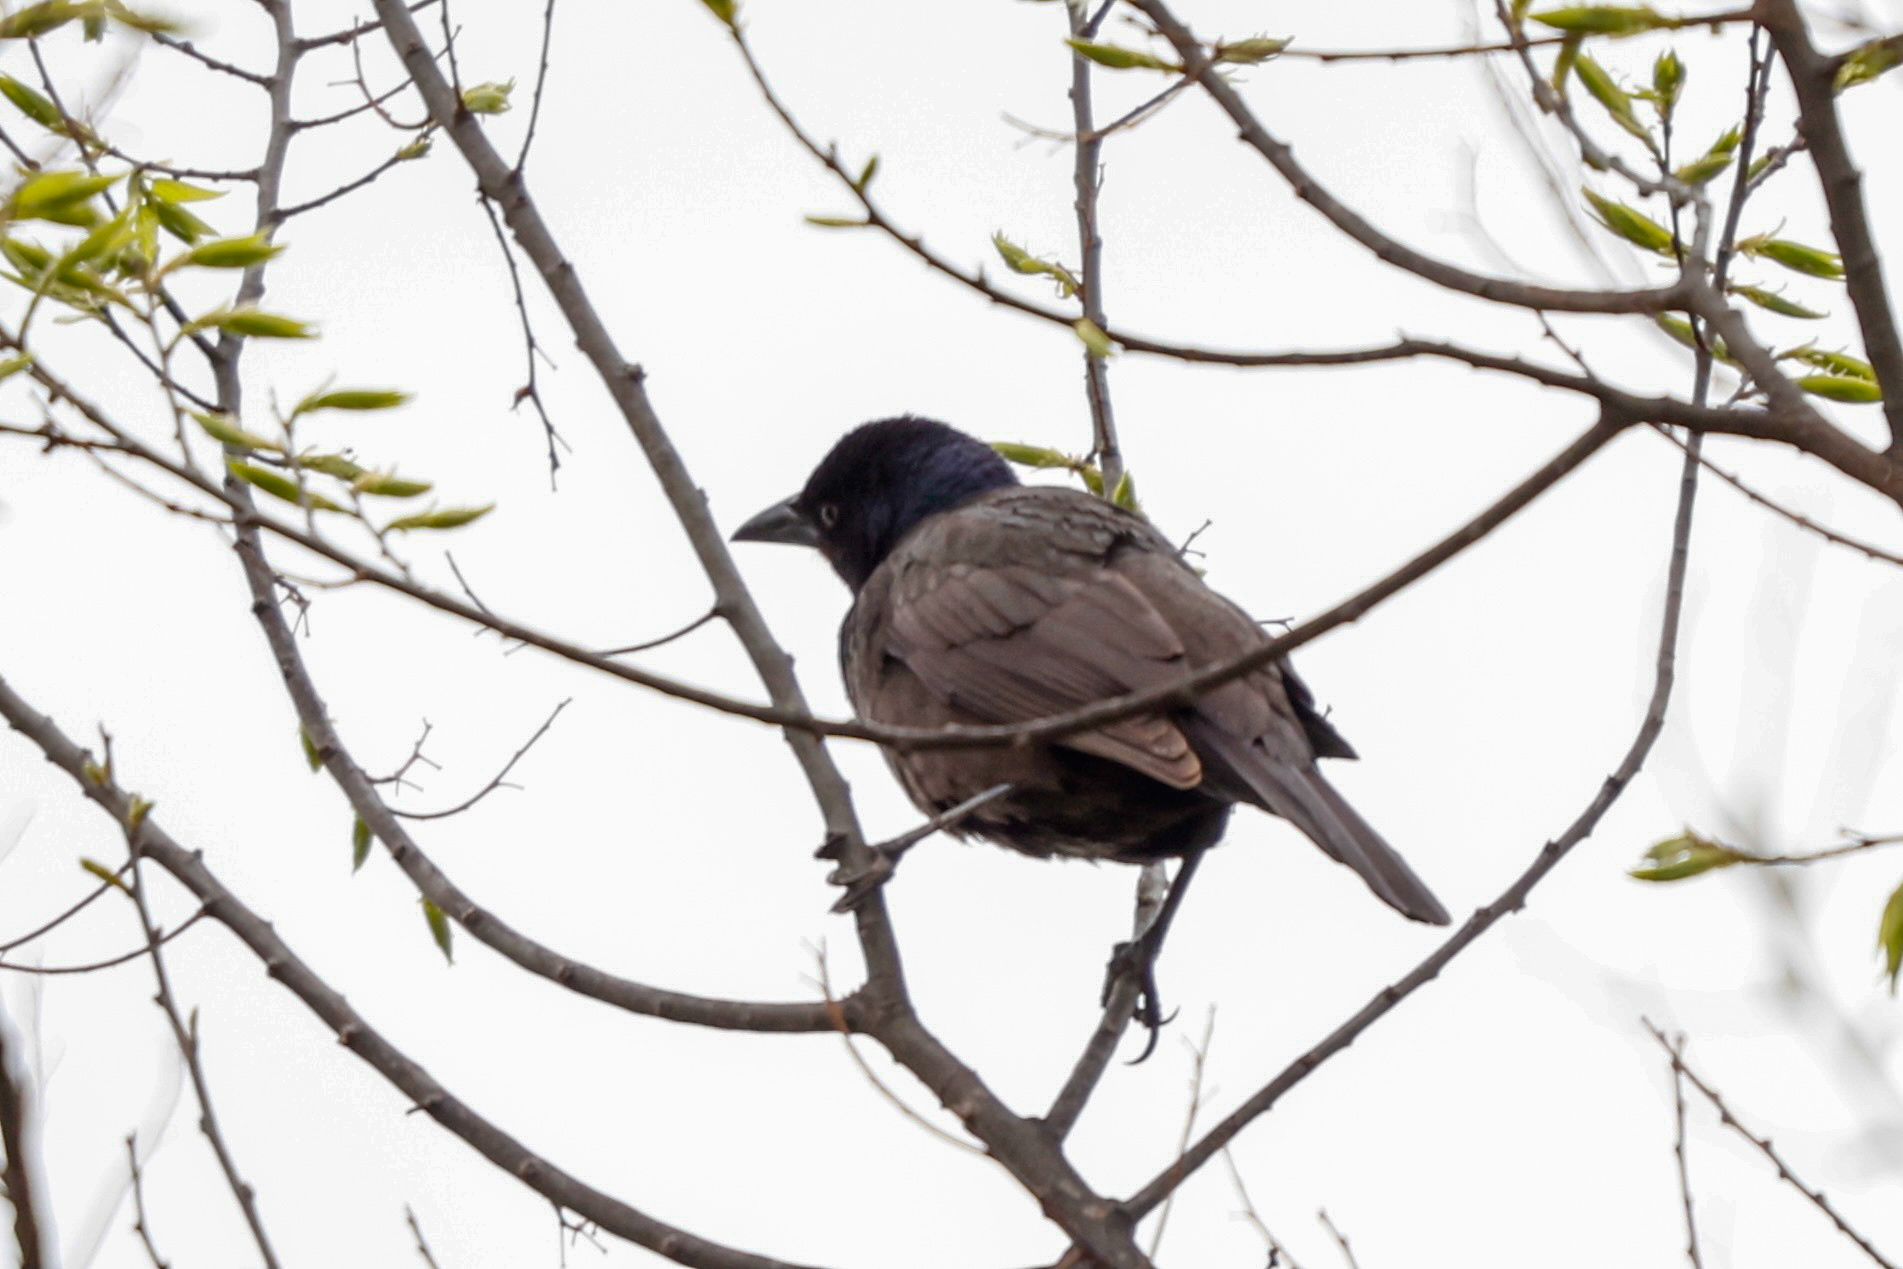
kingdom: Animalia
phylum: Chordata
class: Aves
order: Passeriformes
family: Icteridae
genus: Quiscalus
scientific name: Quiscalus quiscula
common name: Common grackle
